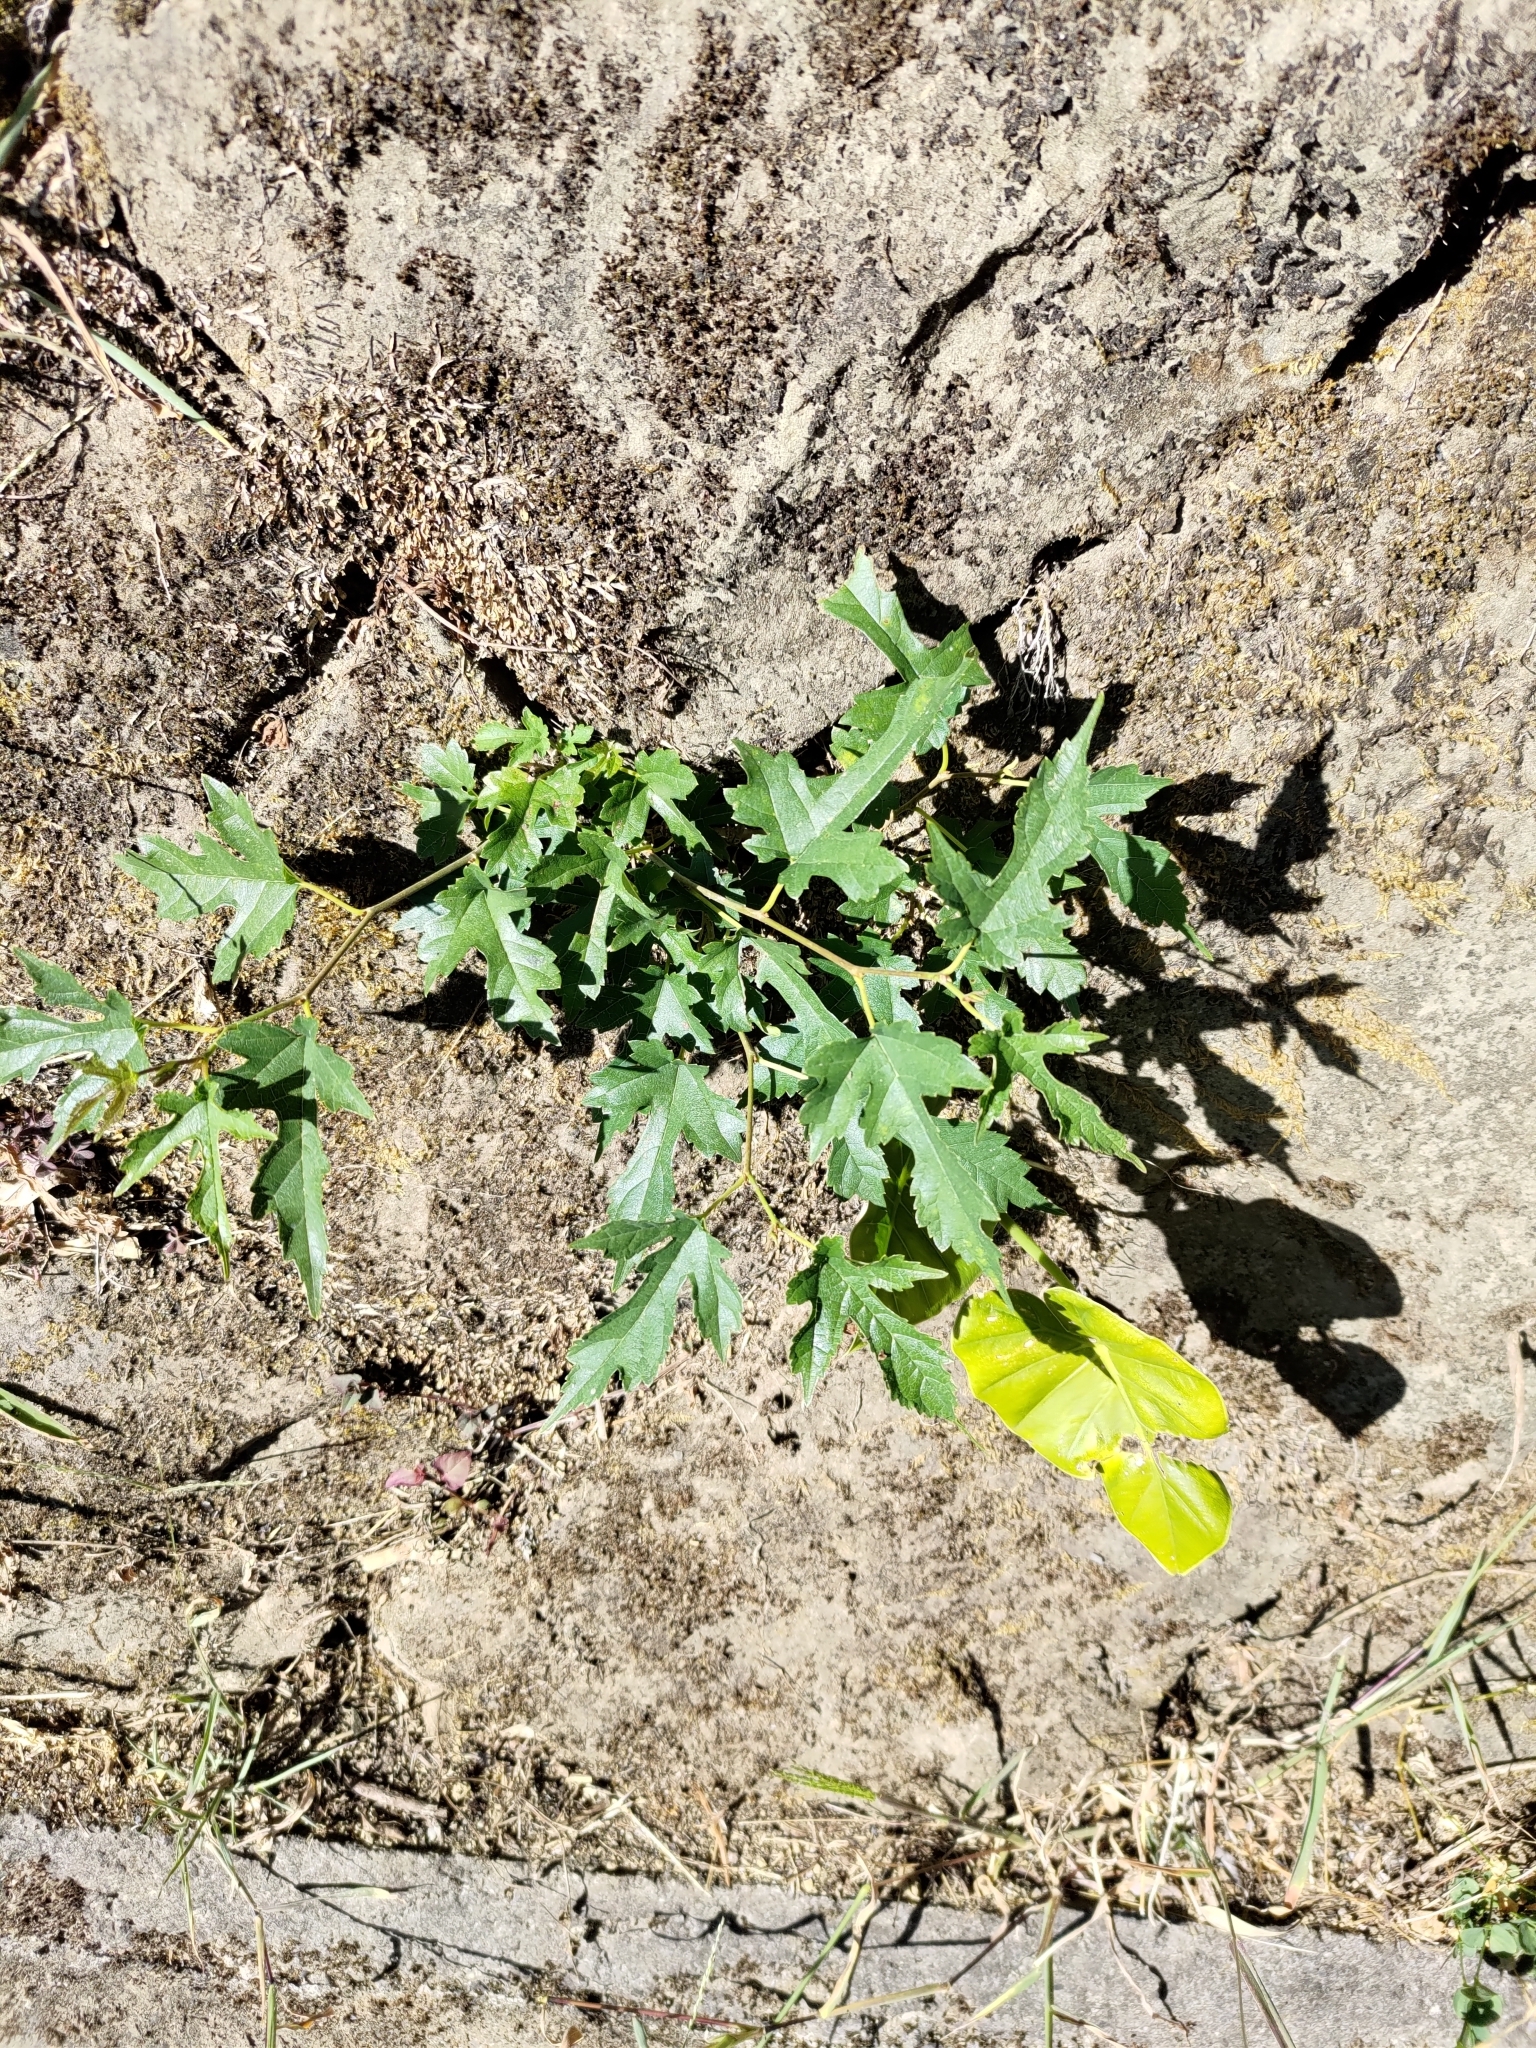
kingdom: Plantae
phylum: Tracheophyta
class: Magnoliopsida
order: Rosales
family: Moraceae
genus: Morus
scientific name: Morus indica
